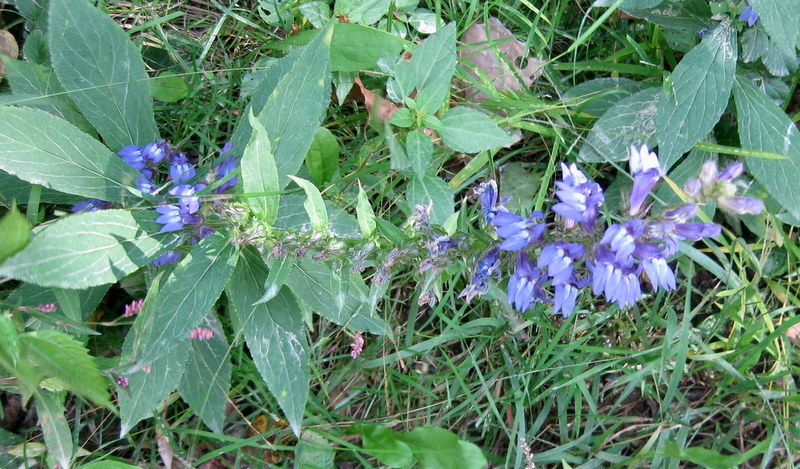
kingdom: Plantae
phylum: Tracheophyta
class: Magnoliopsida
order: Asterales
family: Campanulaceae
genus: Lobelia
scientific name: Lobelia siphilitica
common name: Great lobelia
